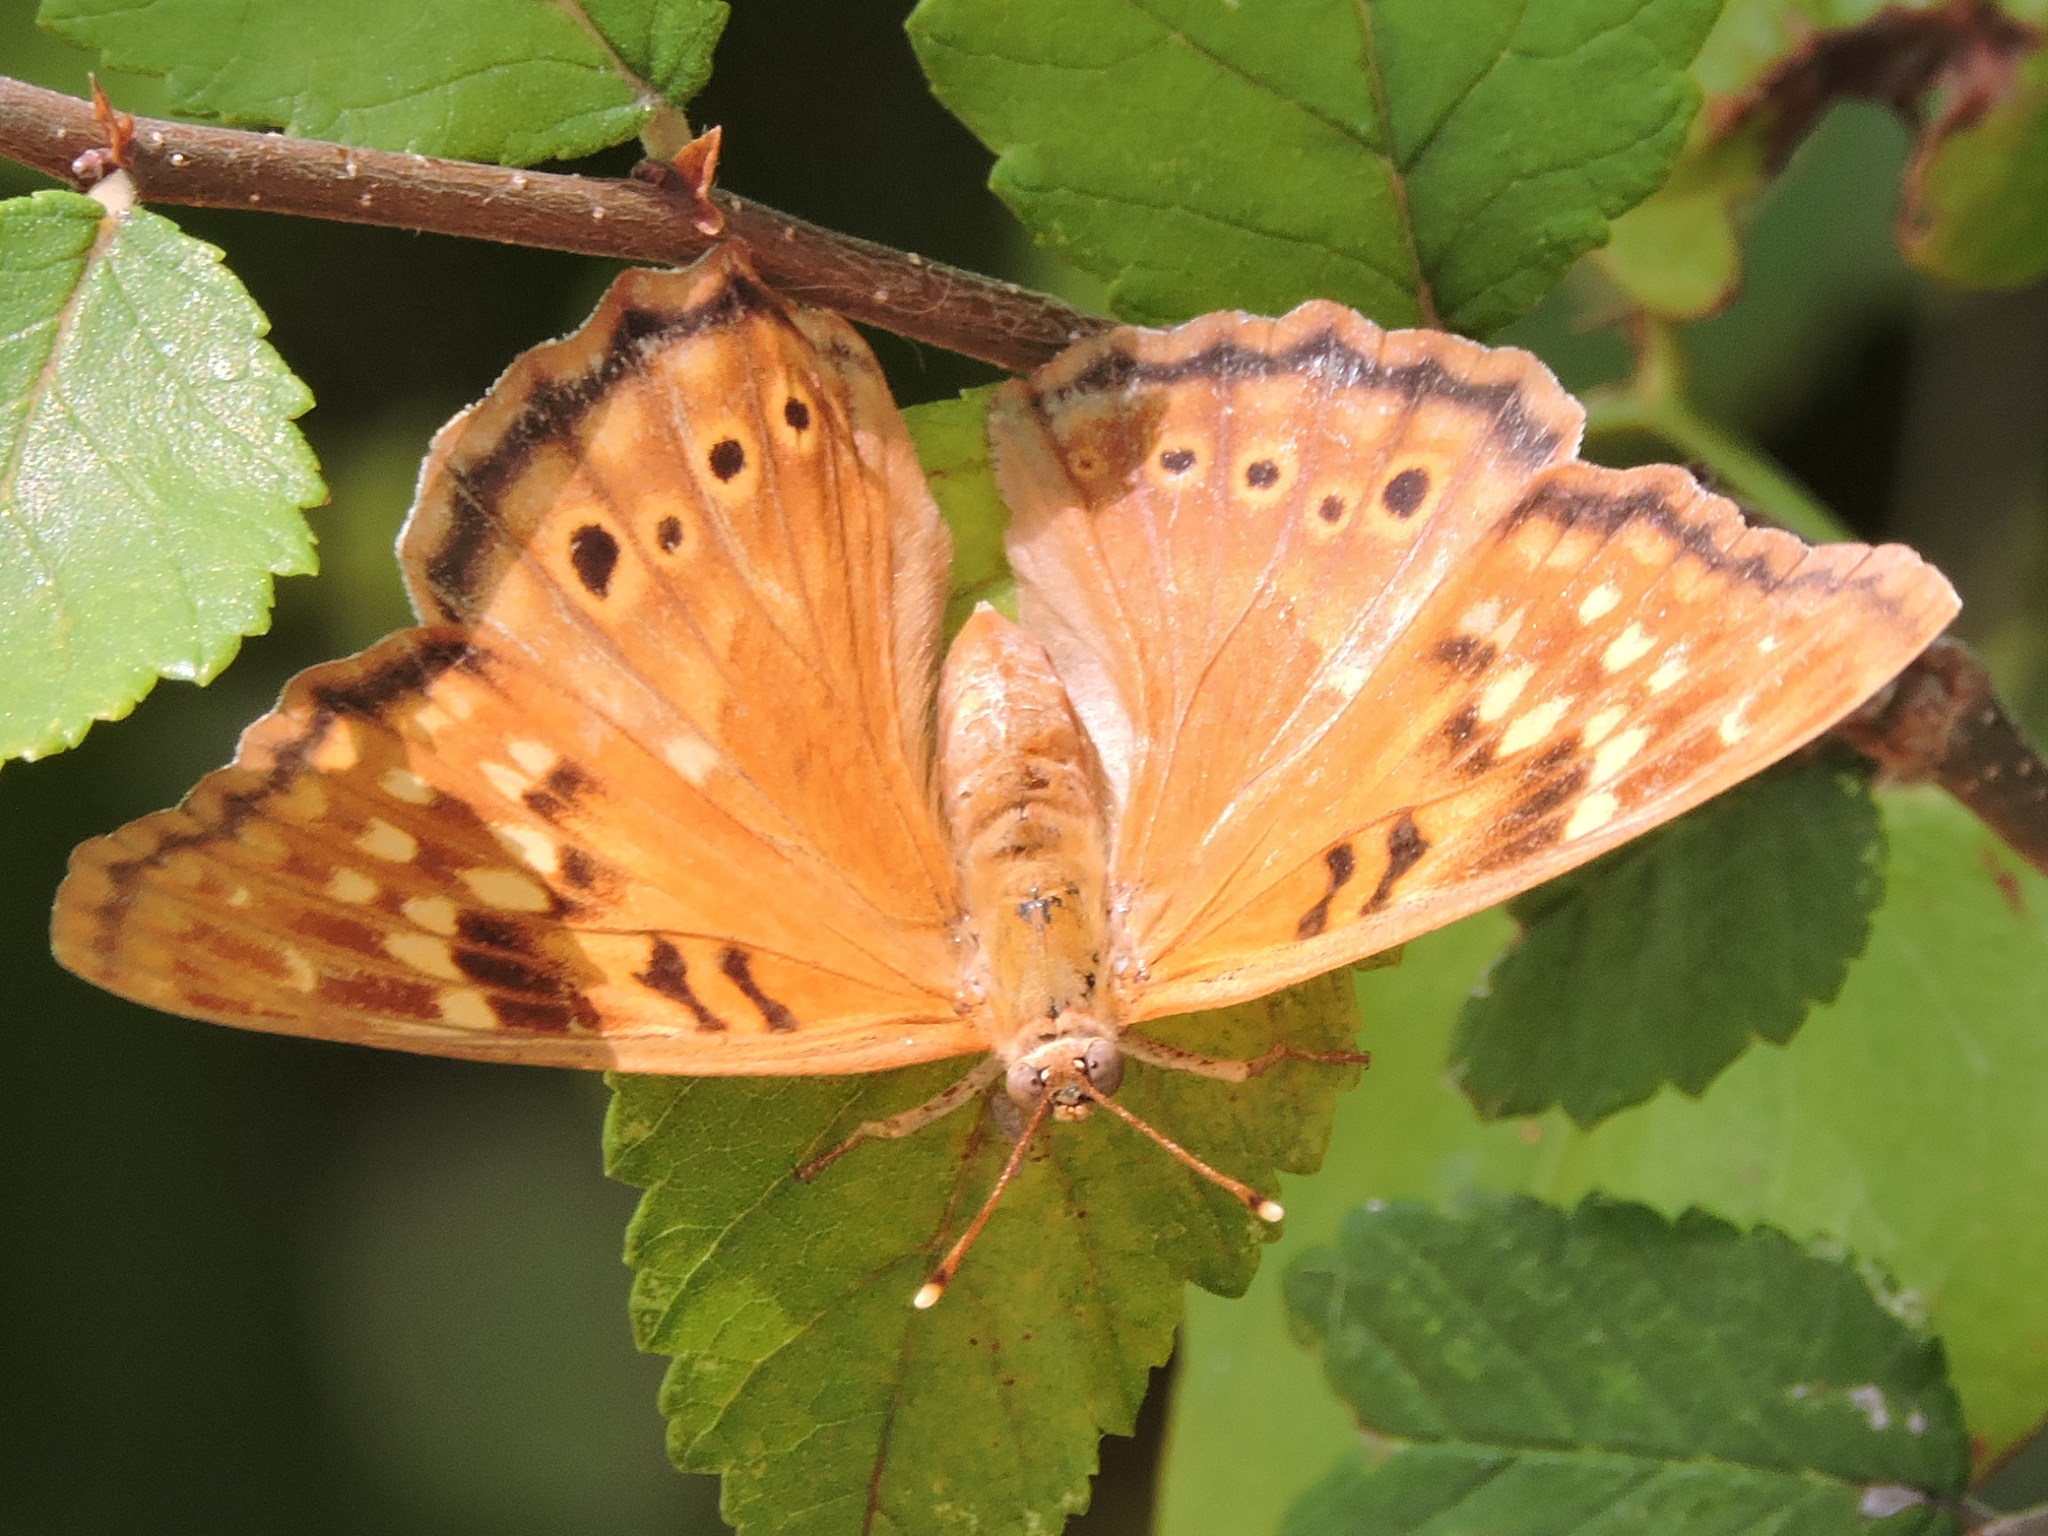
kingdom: Animalia
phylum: Arthropoda
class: Insecta
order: Lepidoptera
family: Nymphalidae
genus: Asterocampa
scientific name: Asterocampa clyton
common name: Tawny emperor
